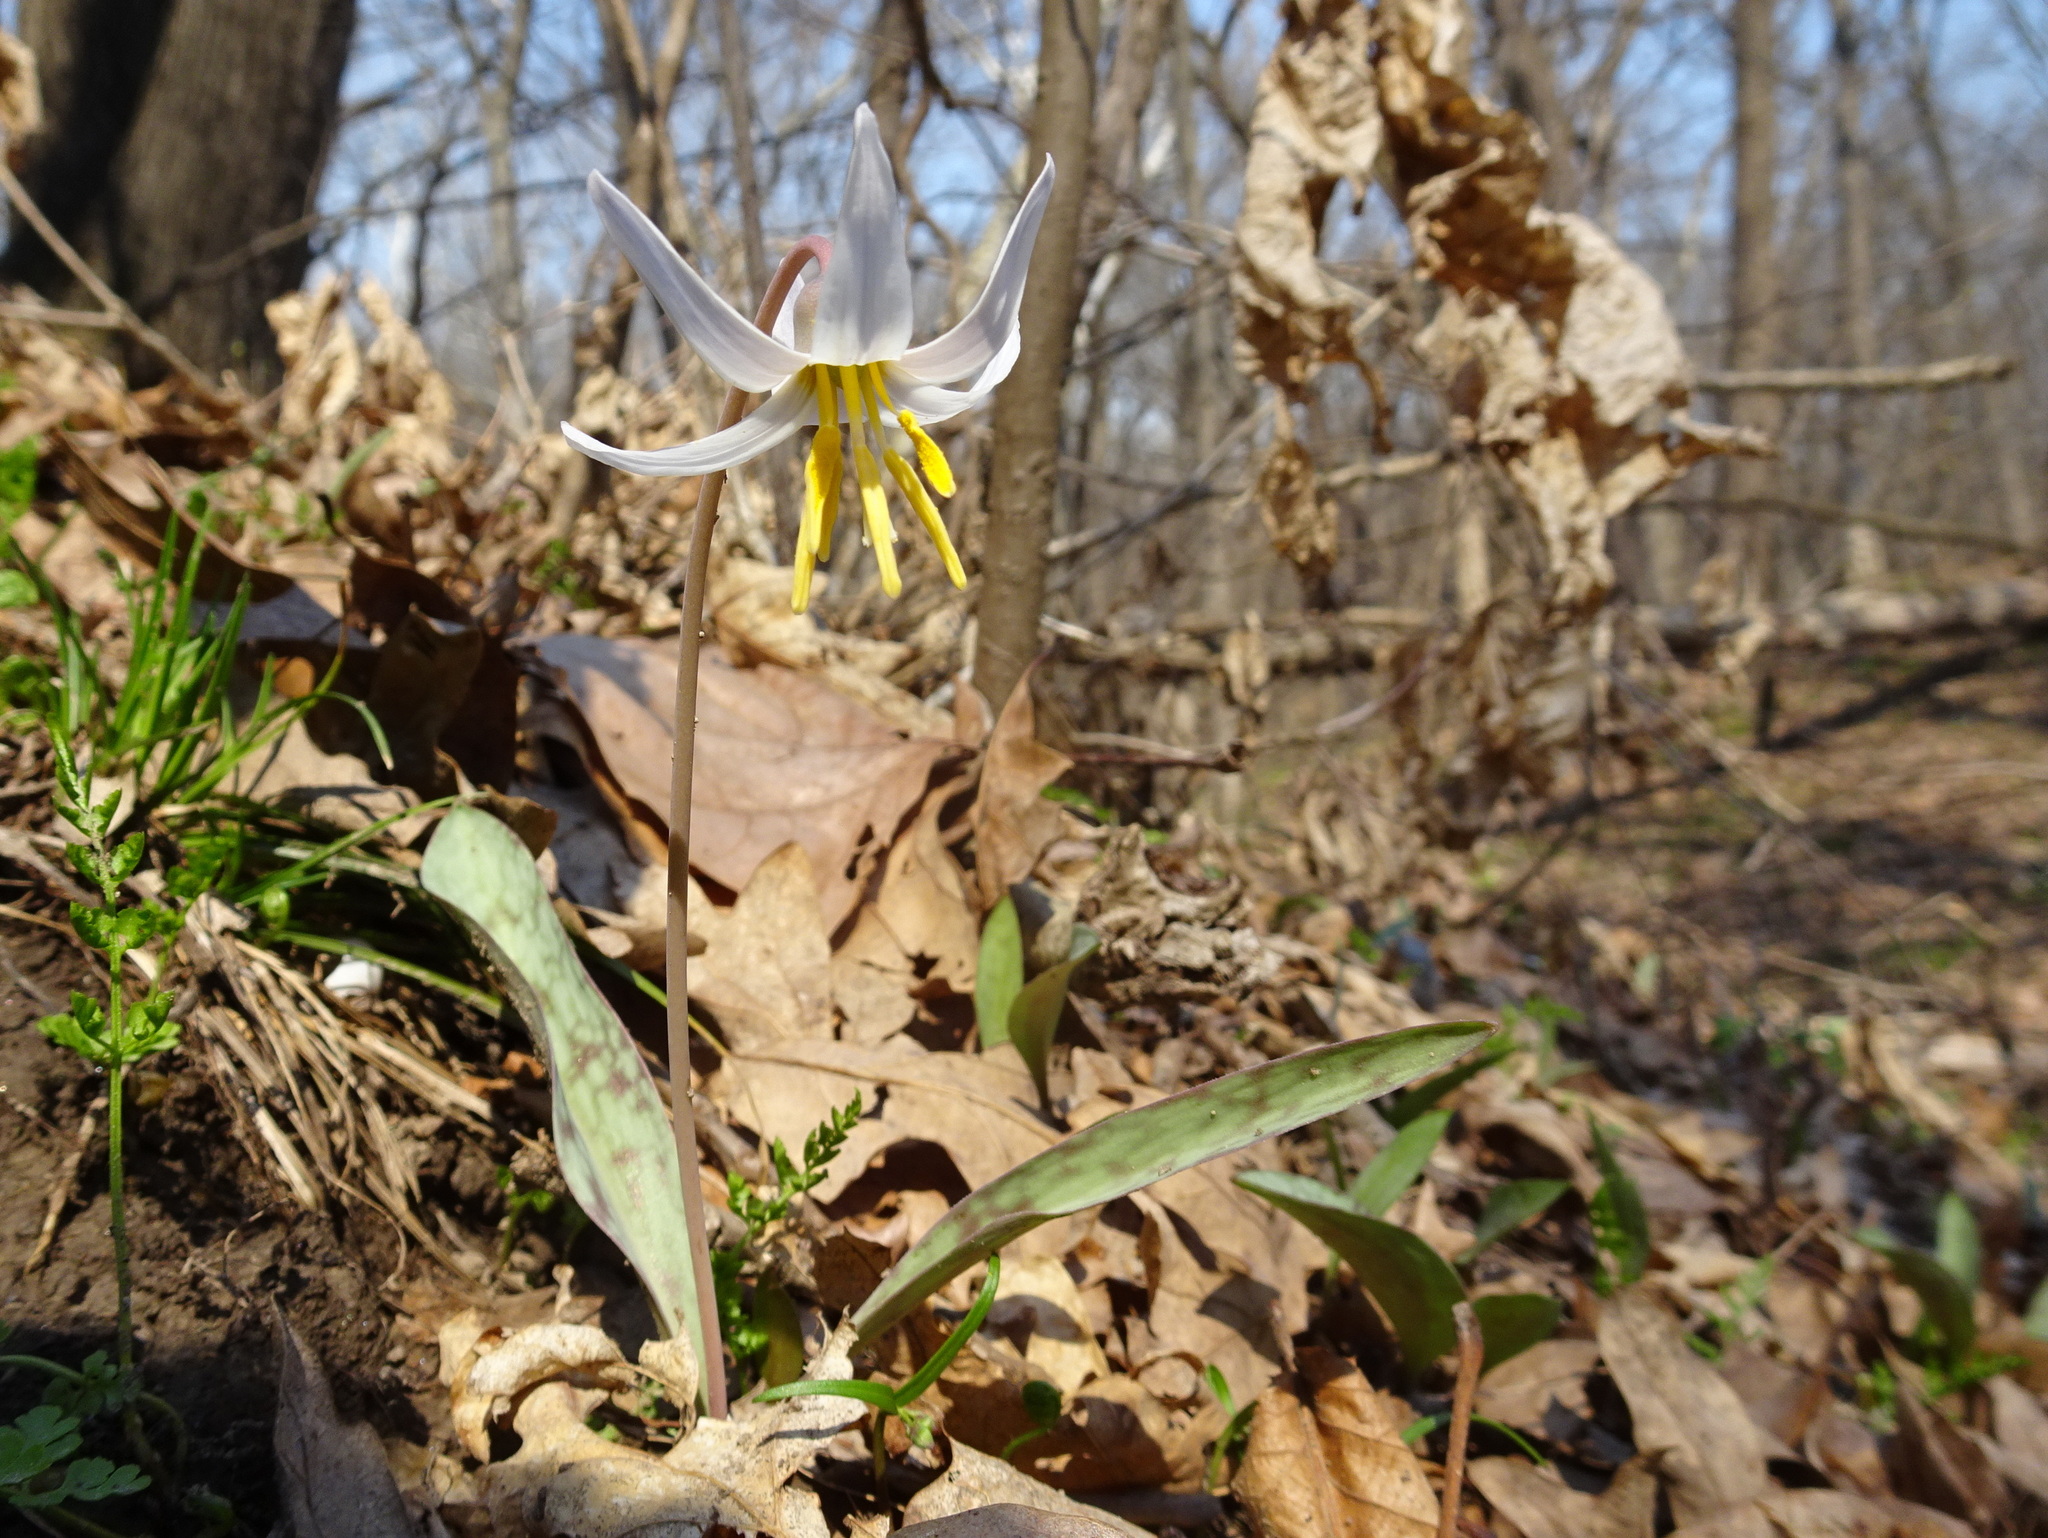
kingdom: Plantae
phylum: Tracheophyta
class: Liliopsida
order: Liliales
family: Liliaceae
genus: Erythronium
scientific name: Erythronium albidum
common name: White trout-lily
